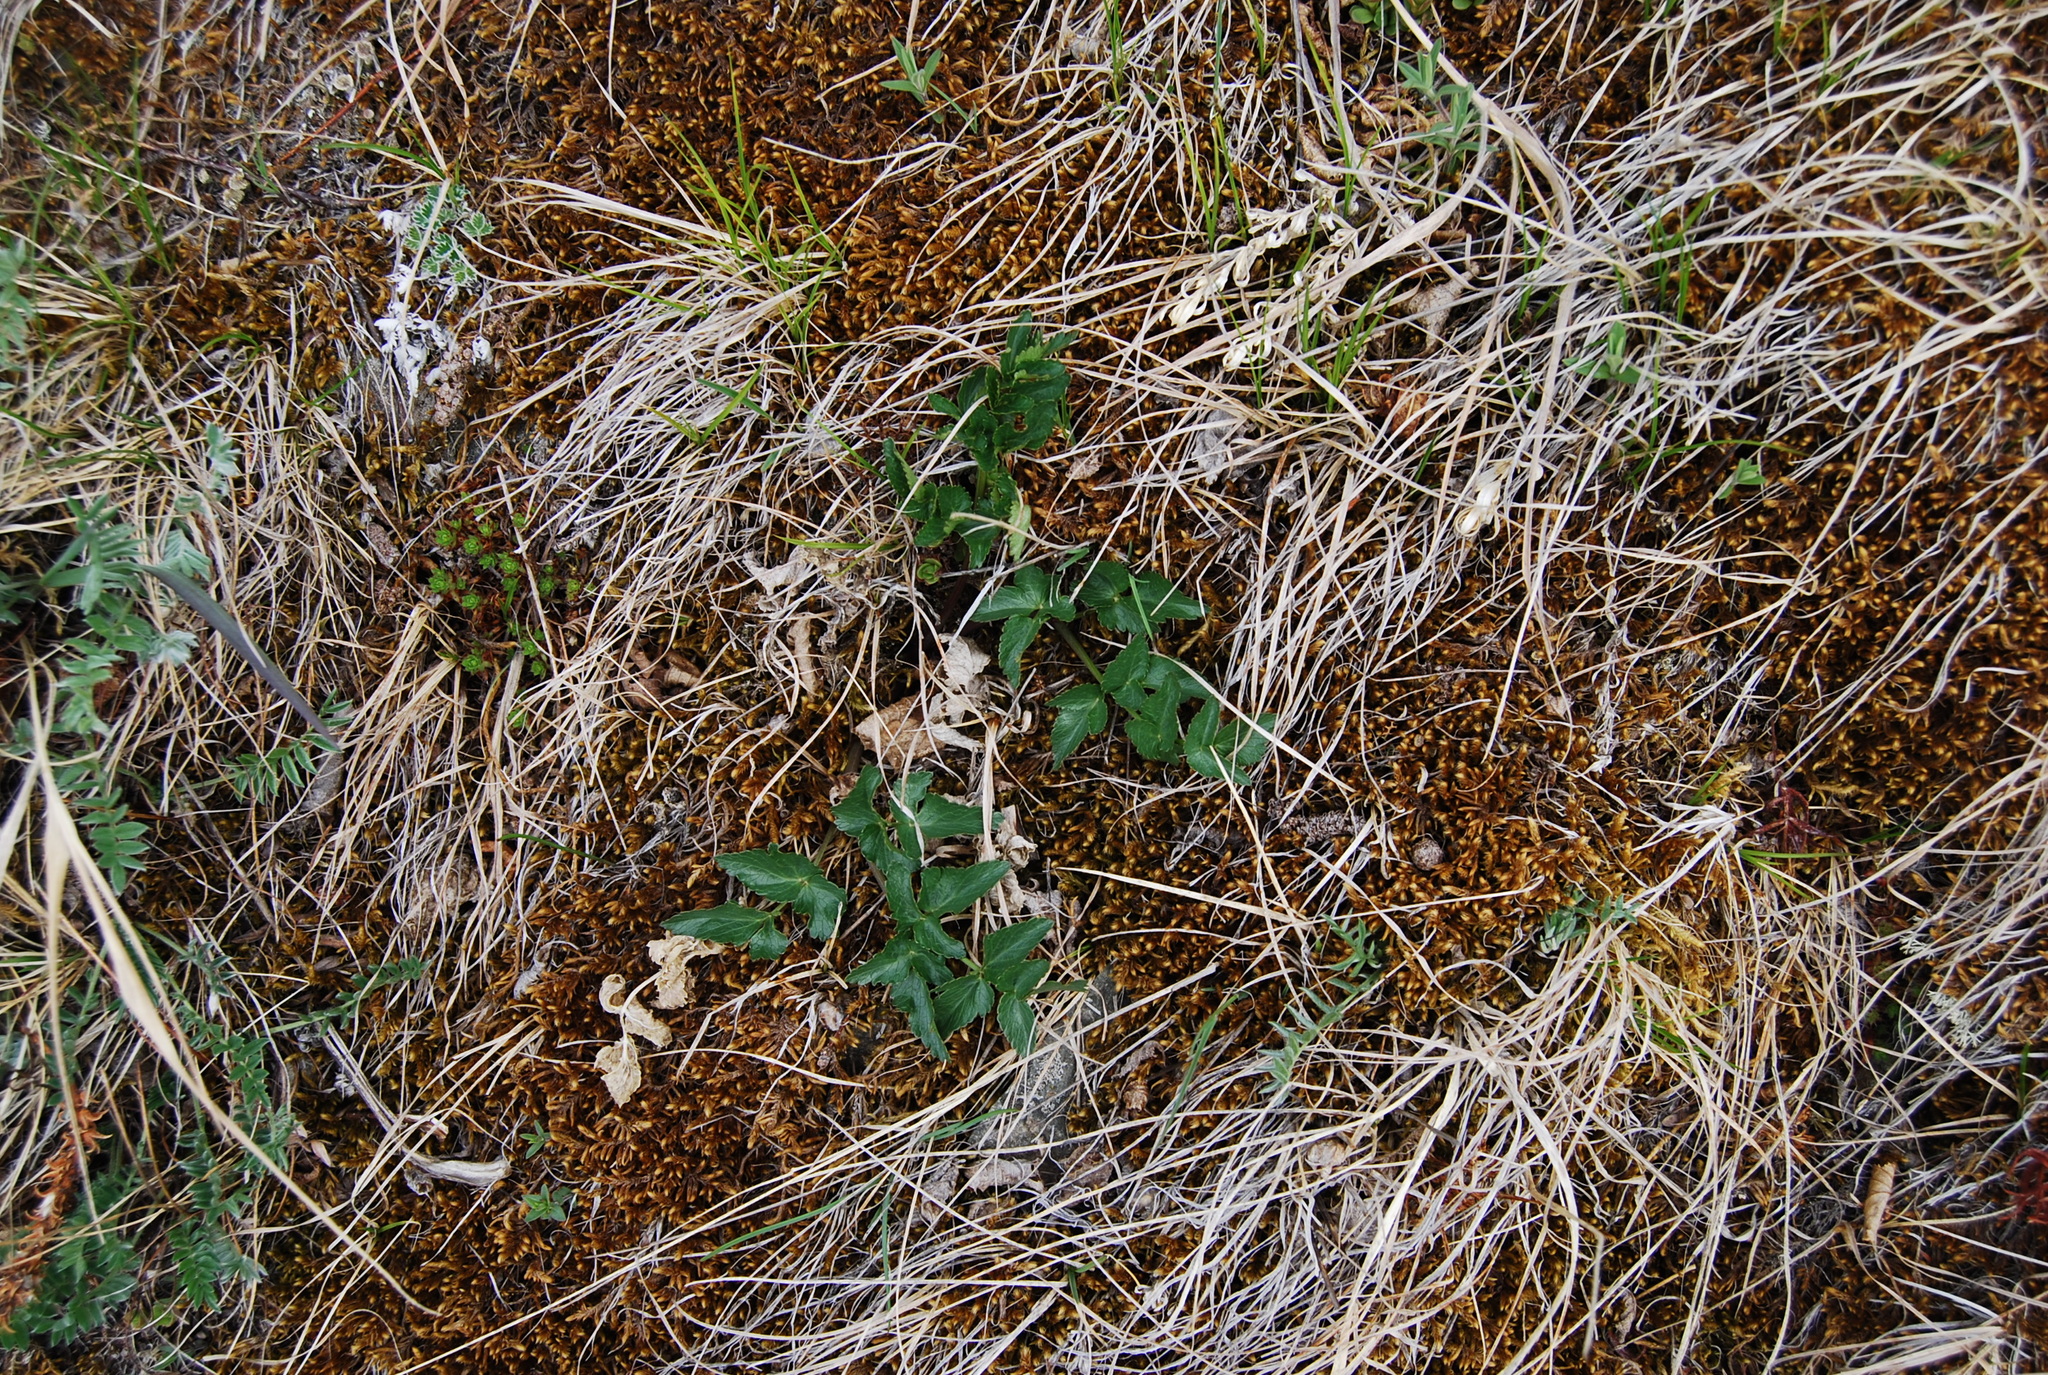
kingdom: Plantae
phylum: Tracheophyta
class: Magnoliopsida
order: Apiales
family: Apiaceae
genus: Magadania
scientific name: Magadania olaensis
